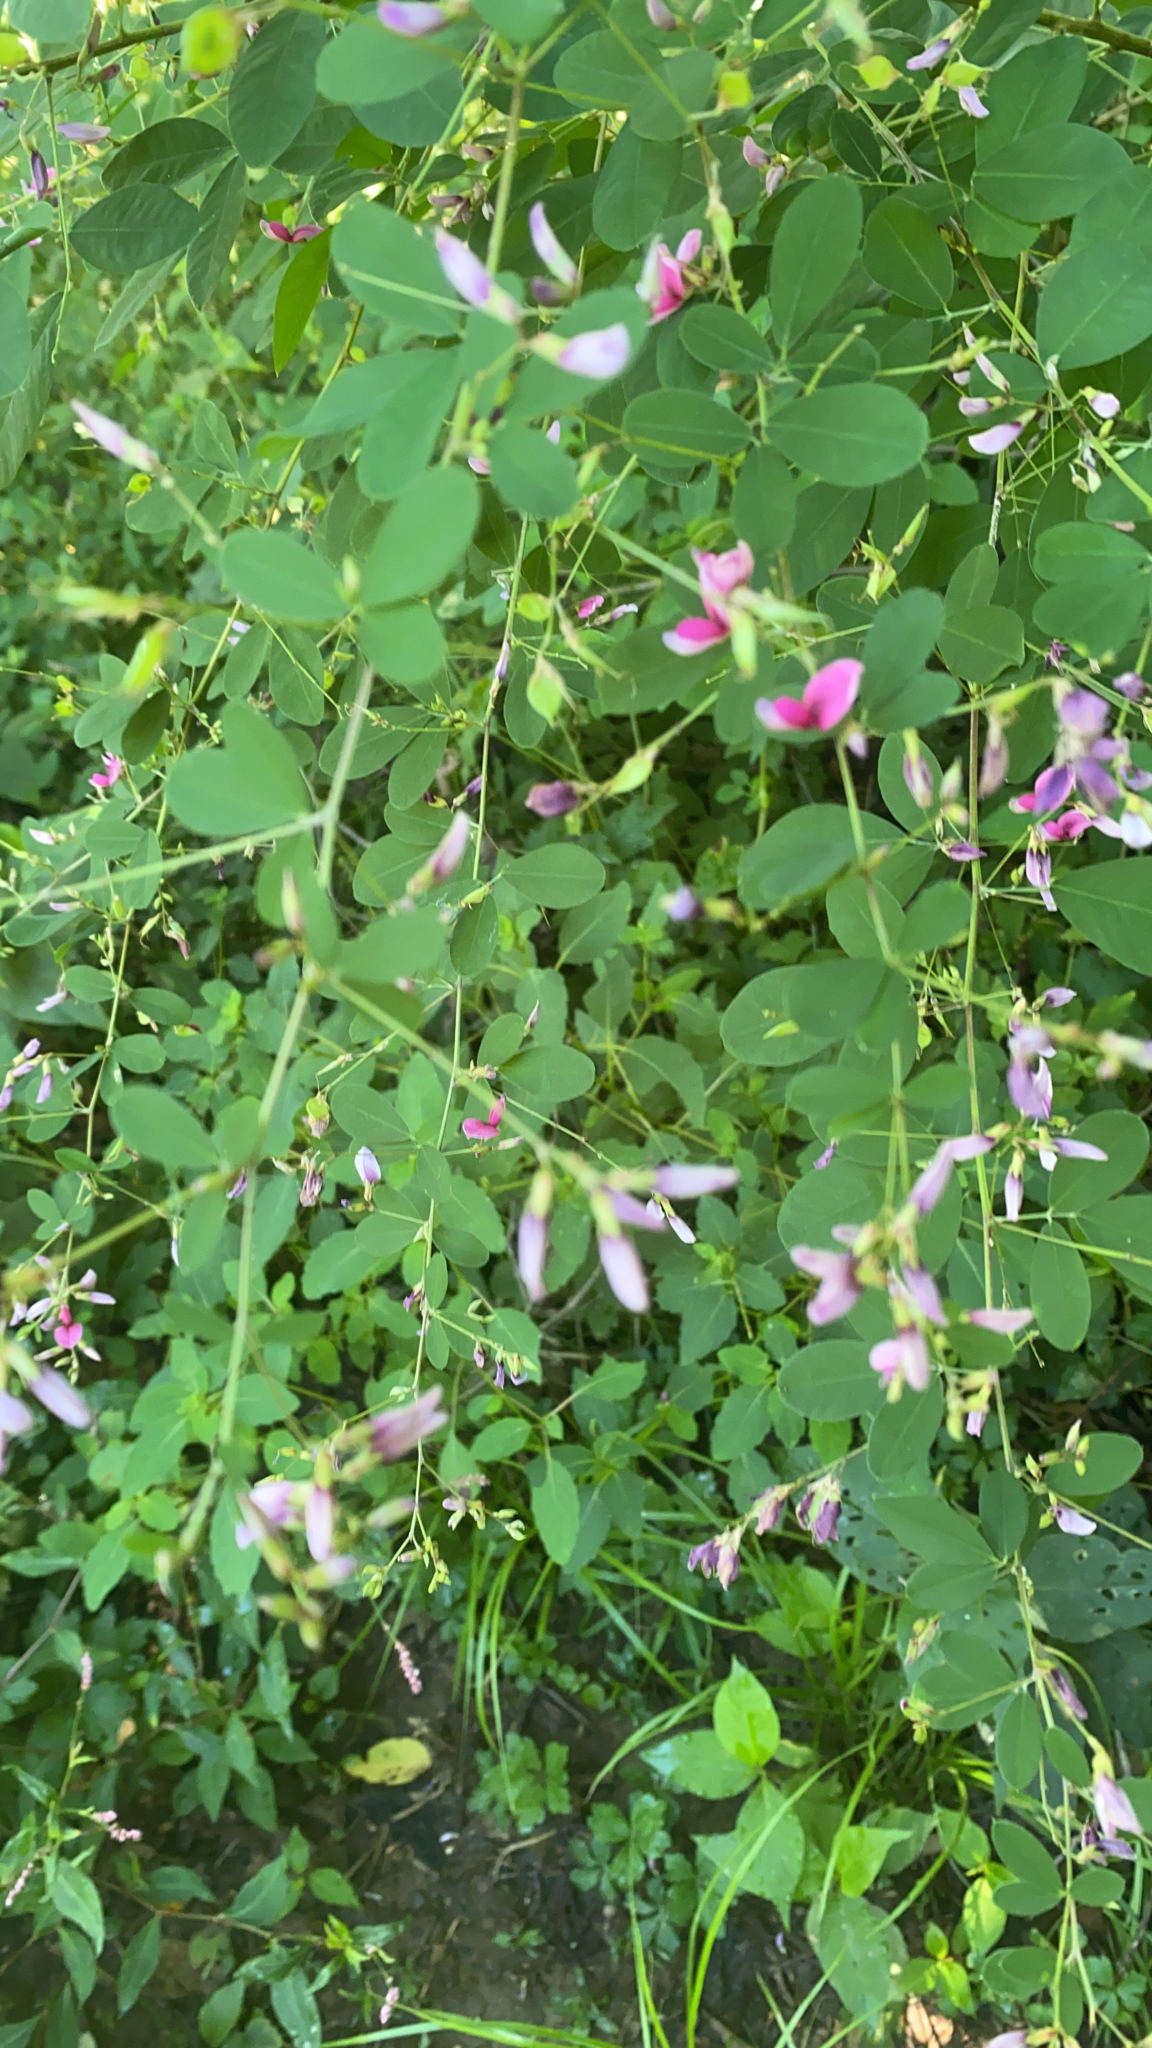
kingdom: Plantae
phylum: Tracheophyta
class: Magnoliopsida
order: Fabales
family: Fabaceae
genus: Lespedeza
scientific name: Lespedeza bicolor
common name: Shrub lespedeza
